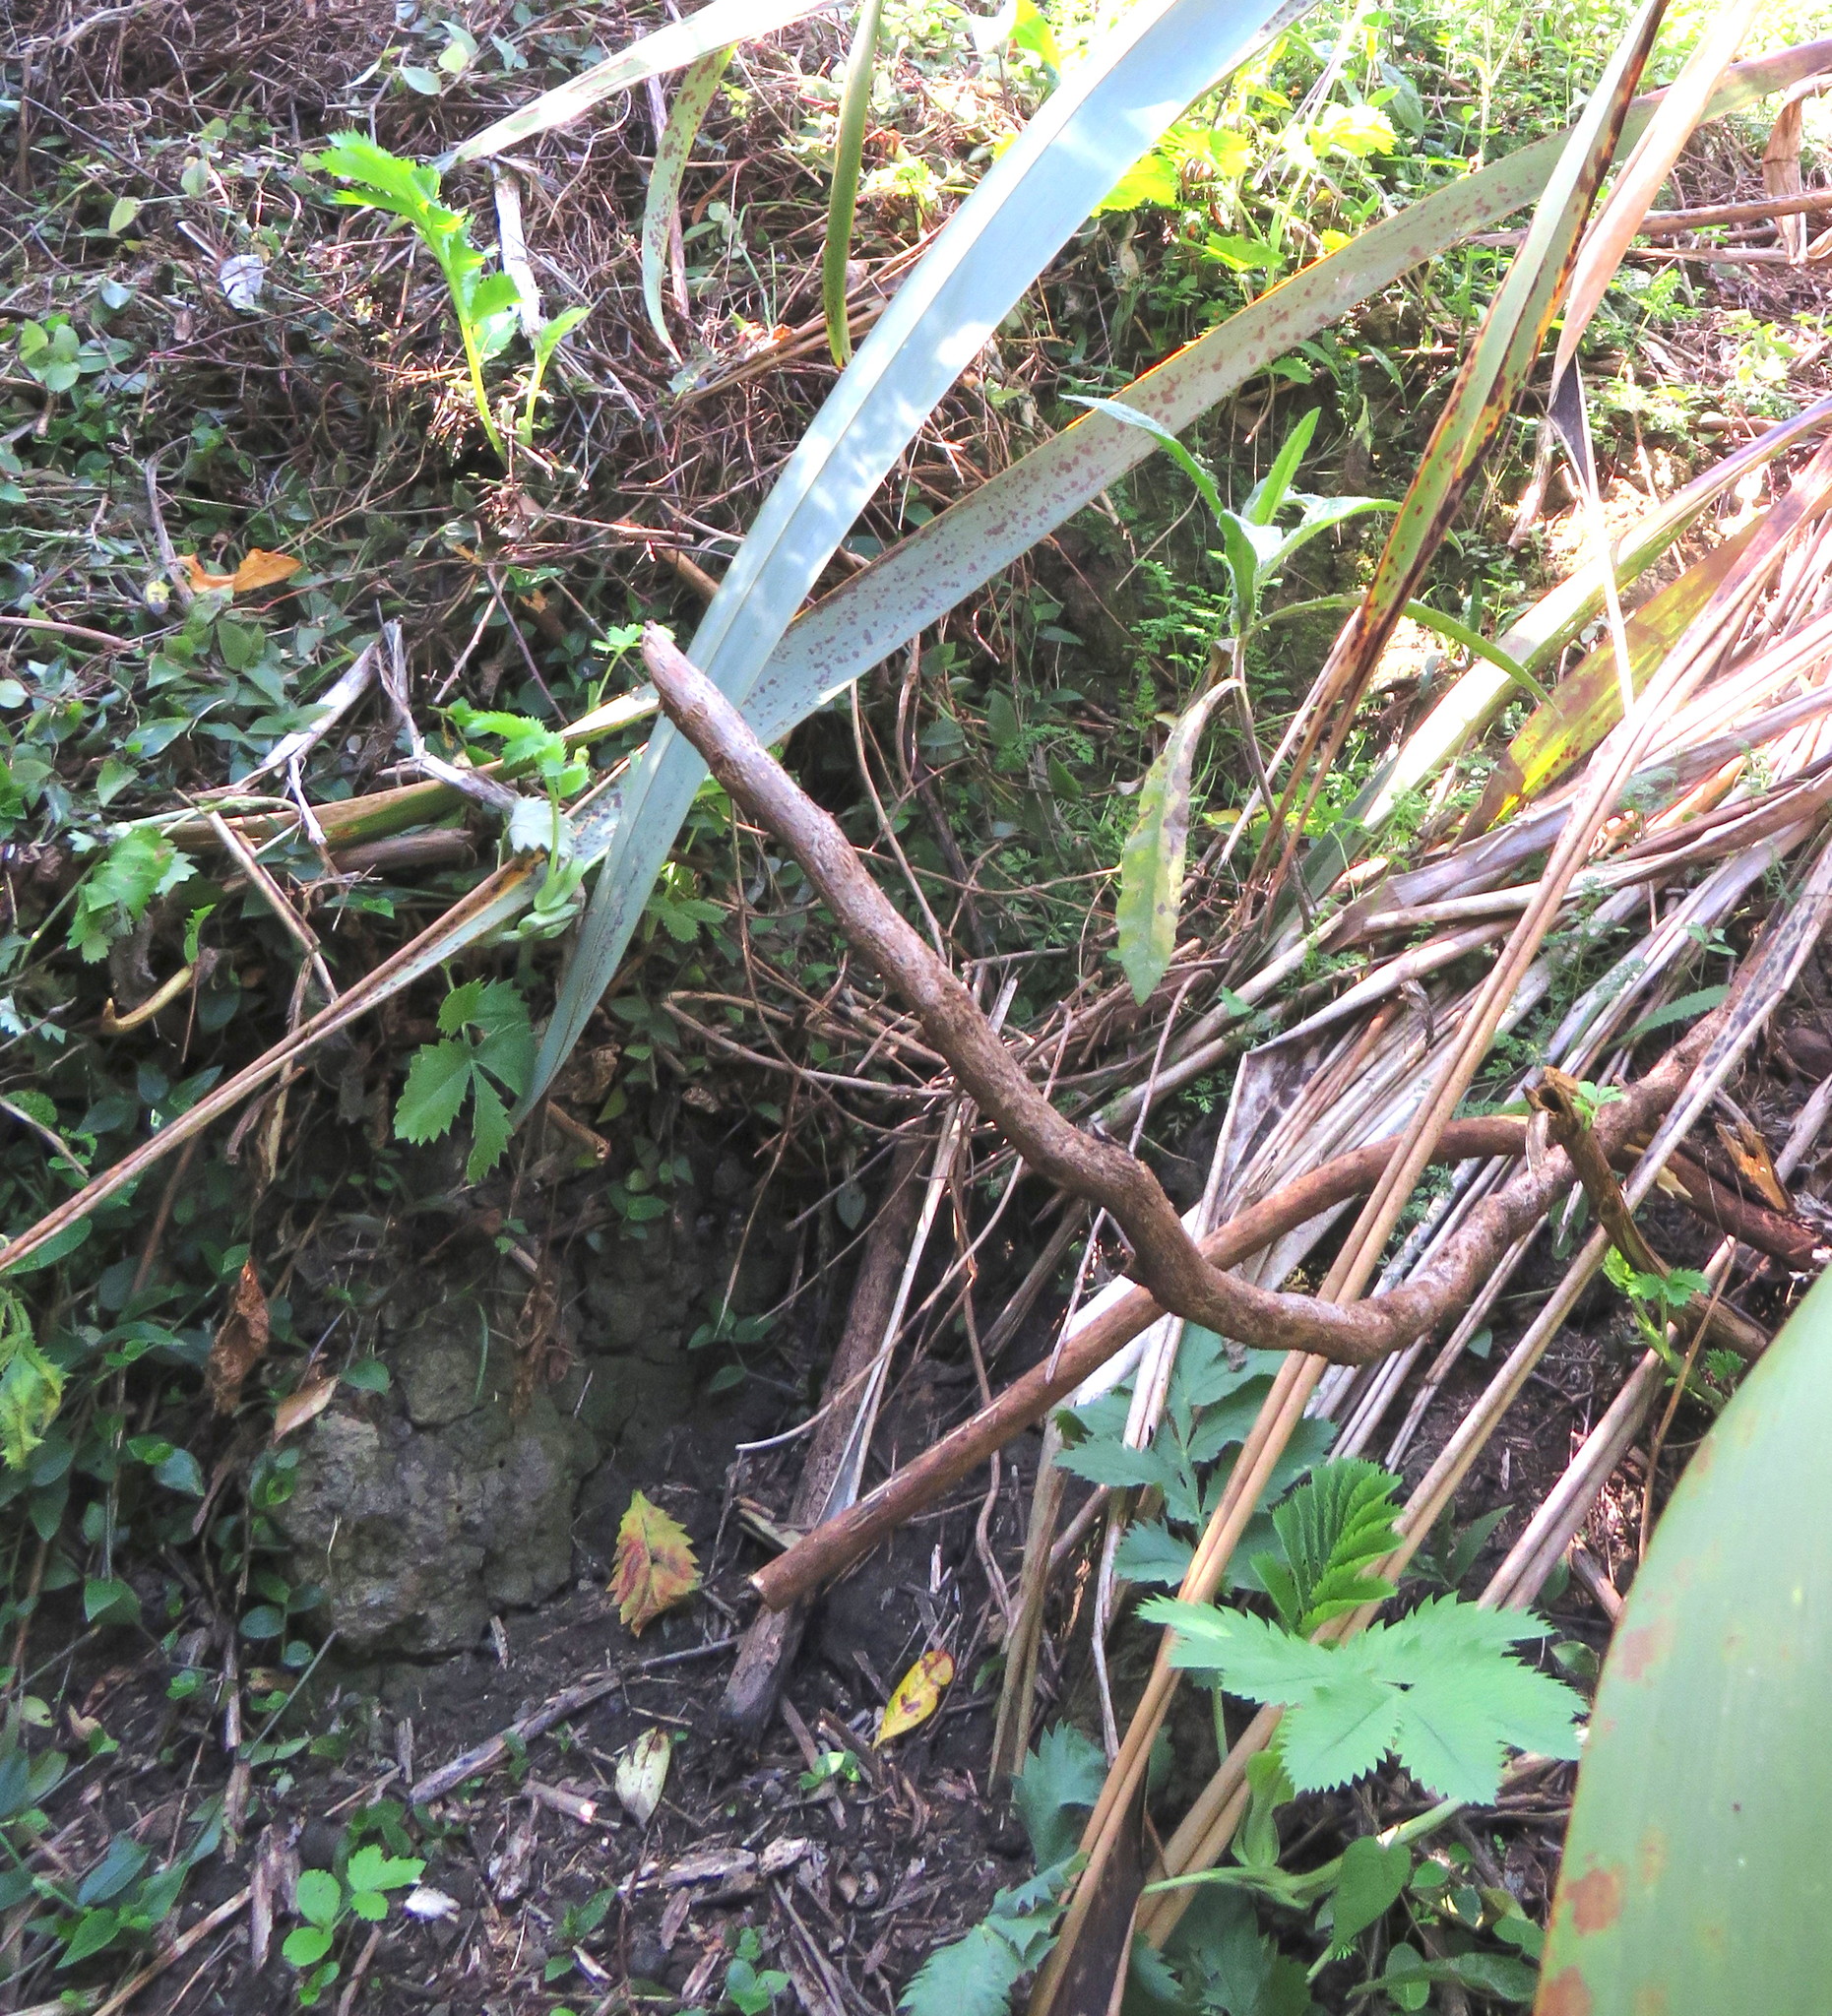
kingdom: Plantae
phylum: Tracheophyta
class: Magnoliopsida
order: Geraniales
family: Melianthaceae
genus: Melianthus
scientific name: Melianthus major
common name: Honey-flower
